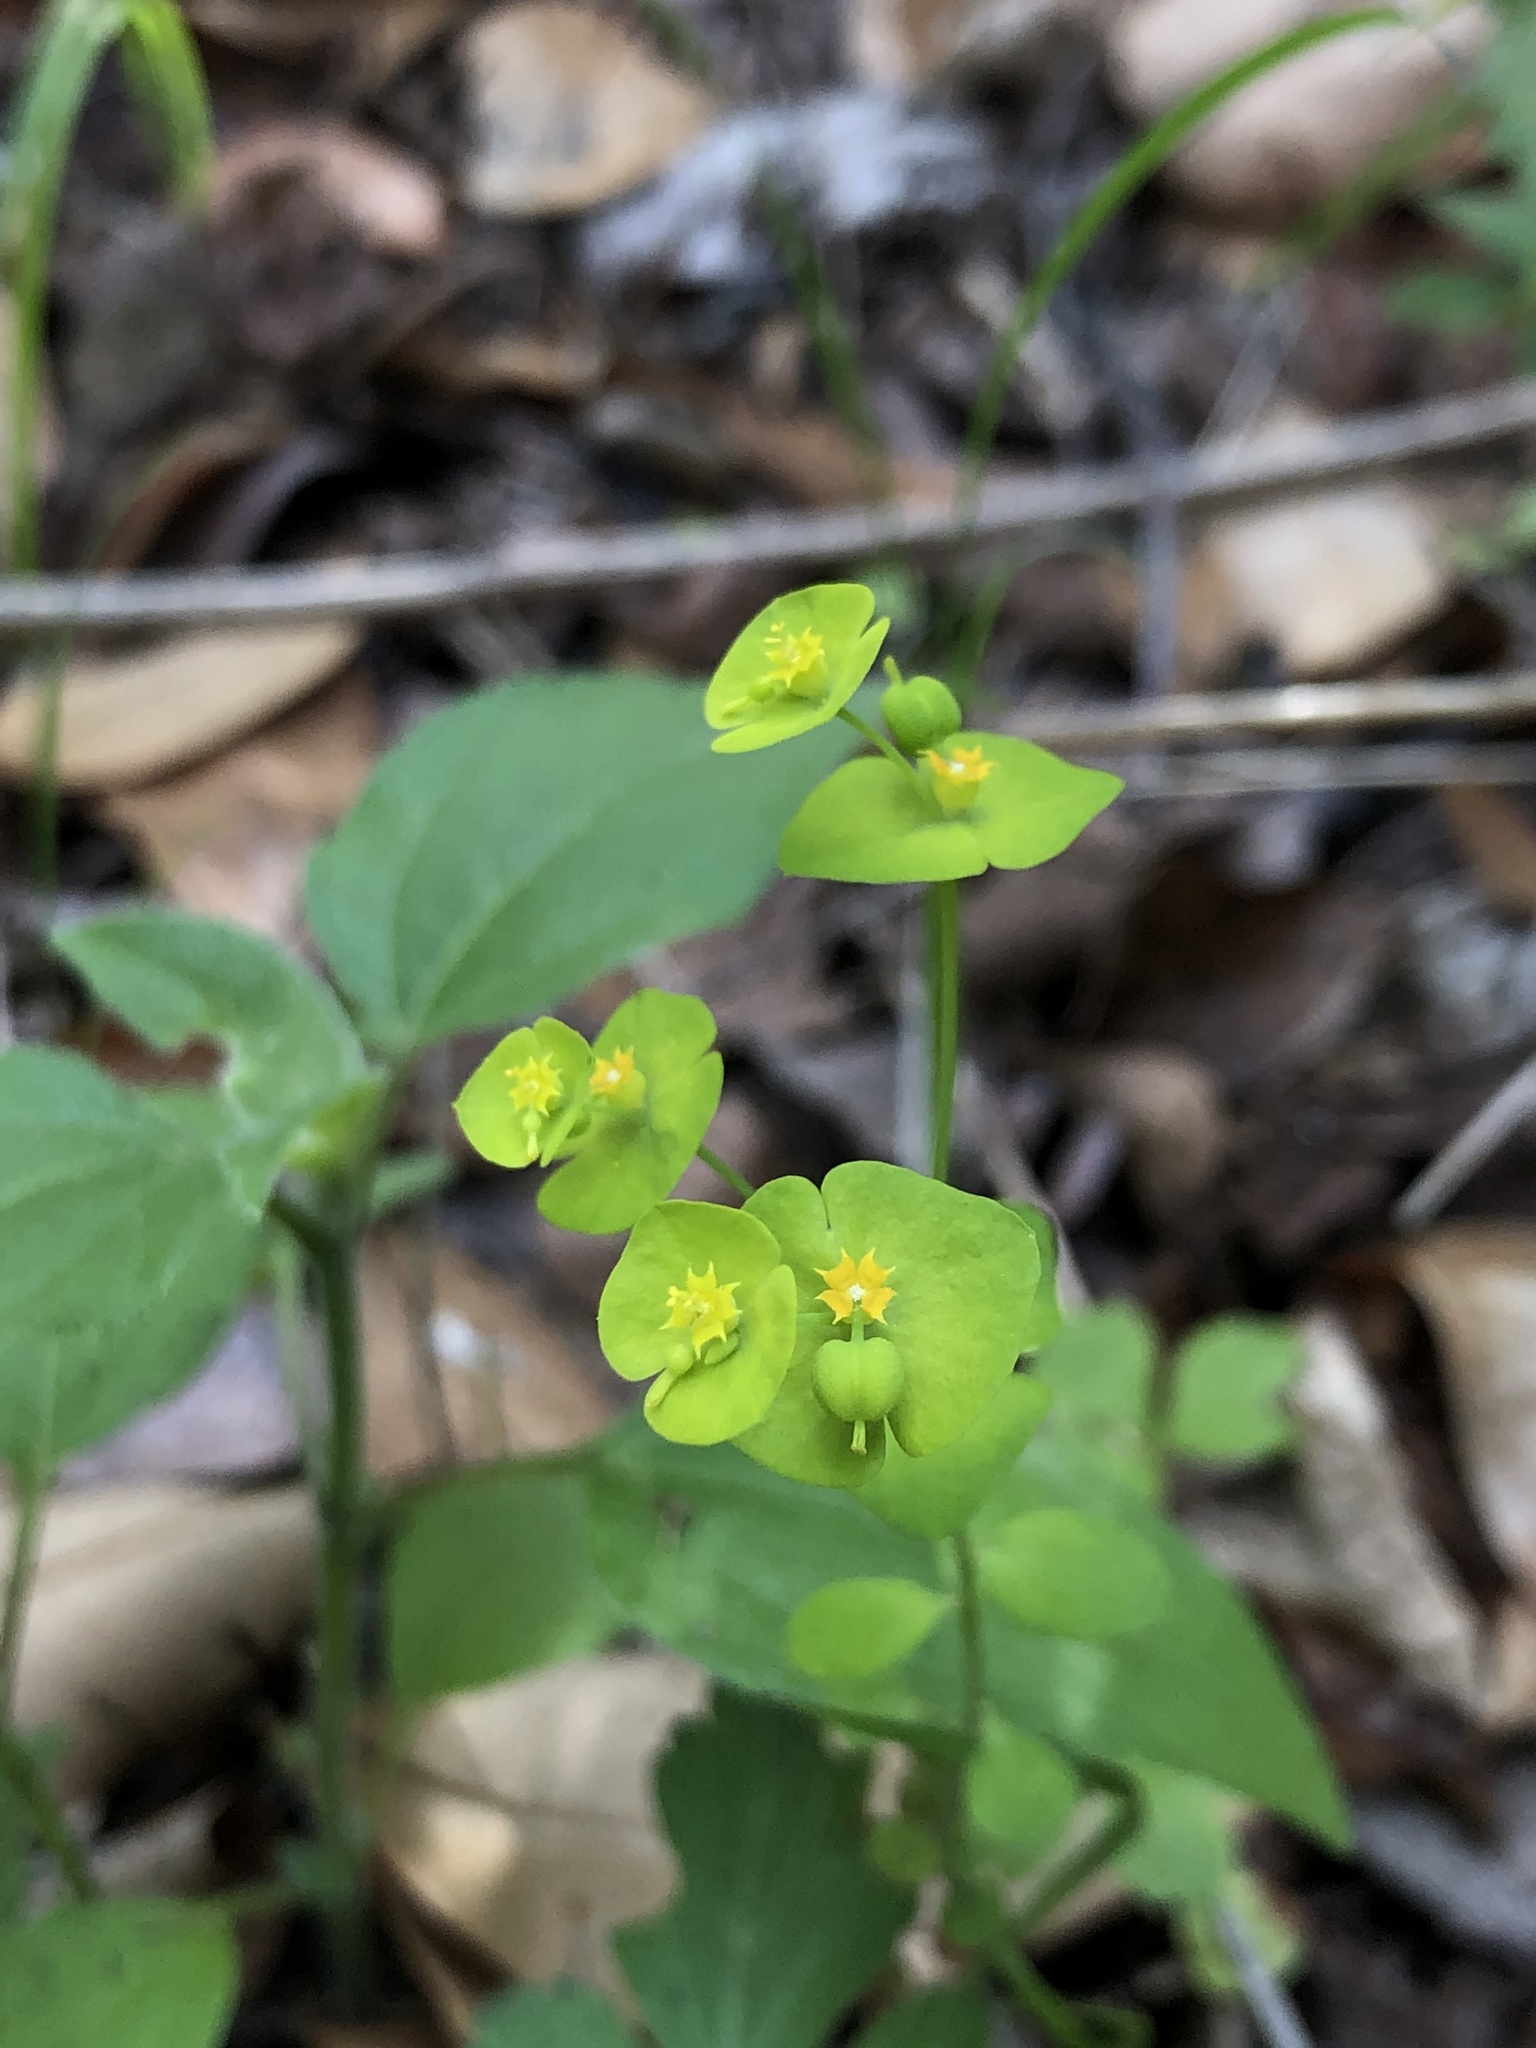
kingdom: Plantae
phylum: Tracheophyta
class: Magnoliopsida
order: Malpighiales
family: Euphorbiaceae
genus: Euphorbia
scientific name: Euphorbia roemeriana
